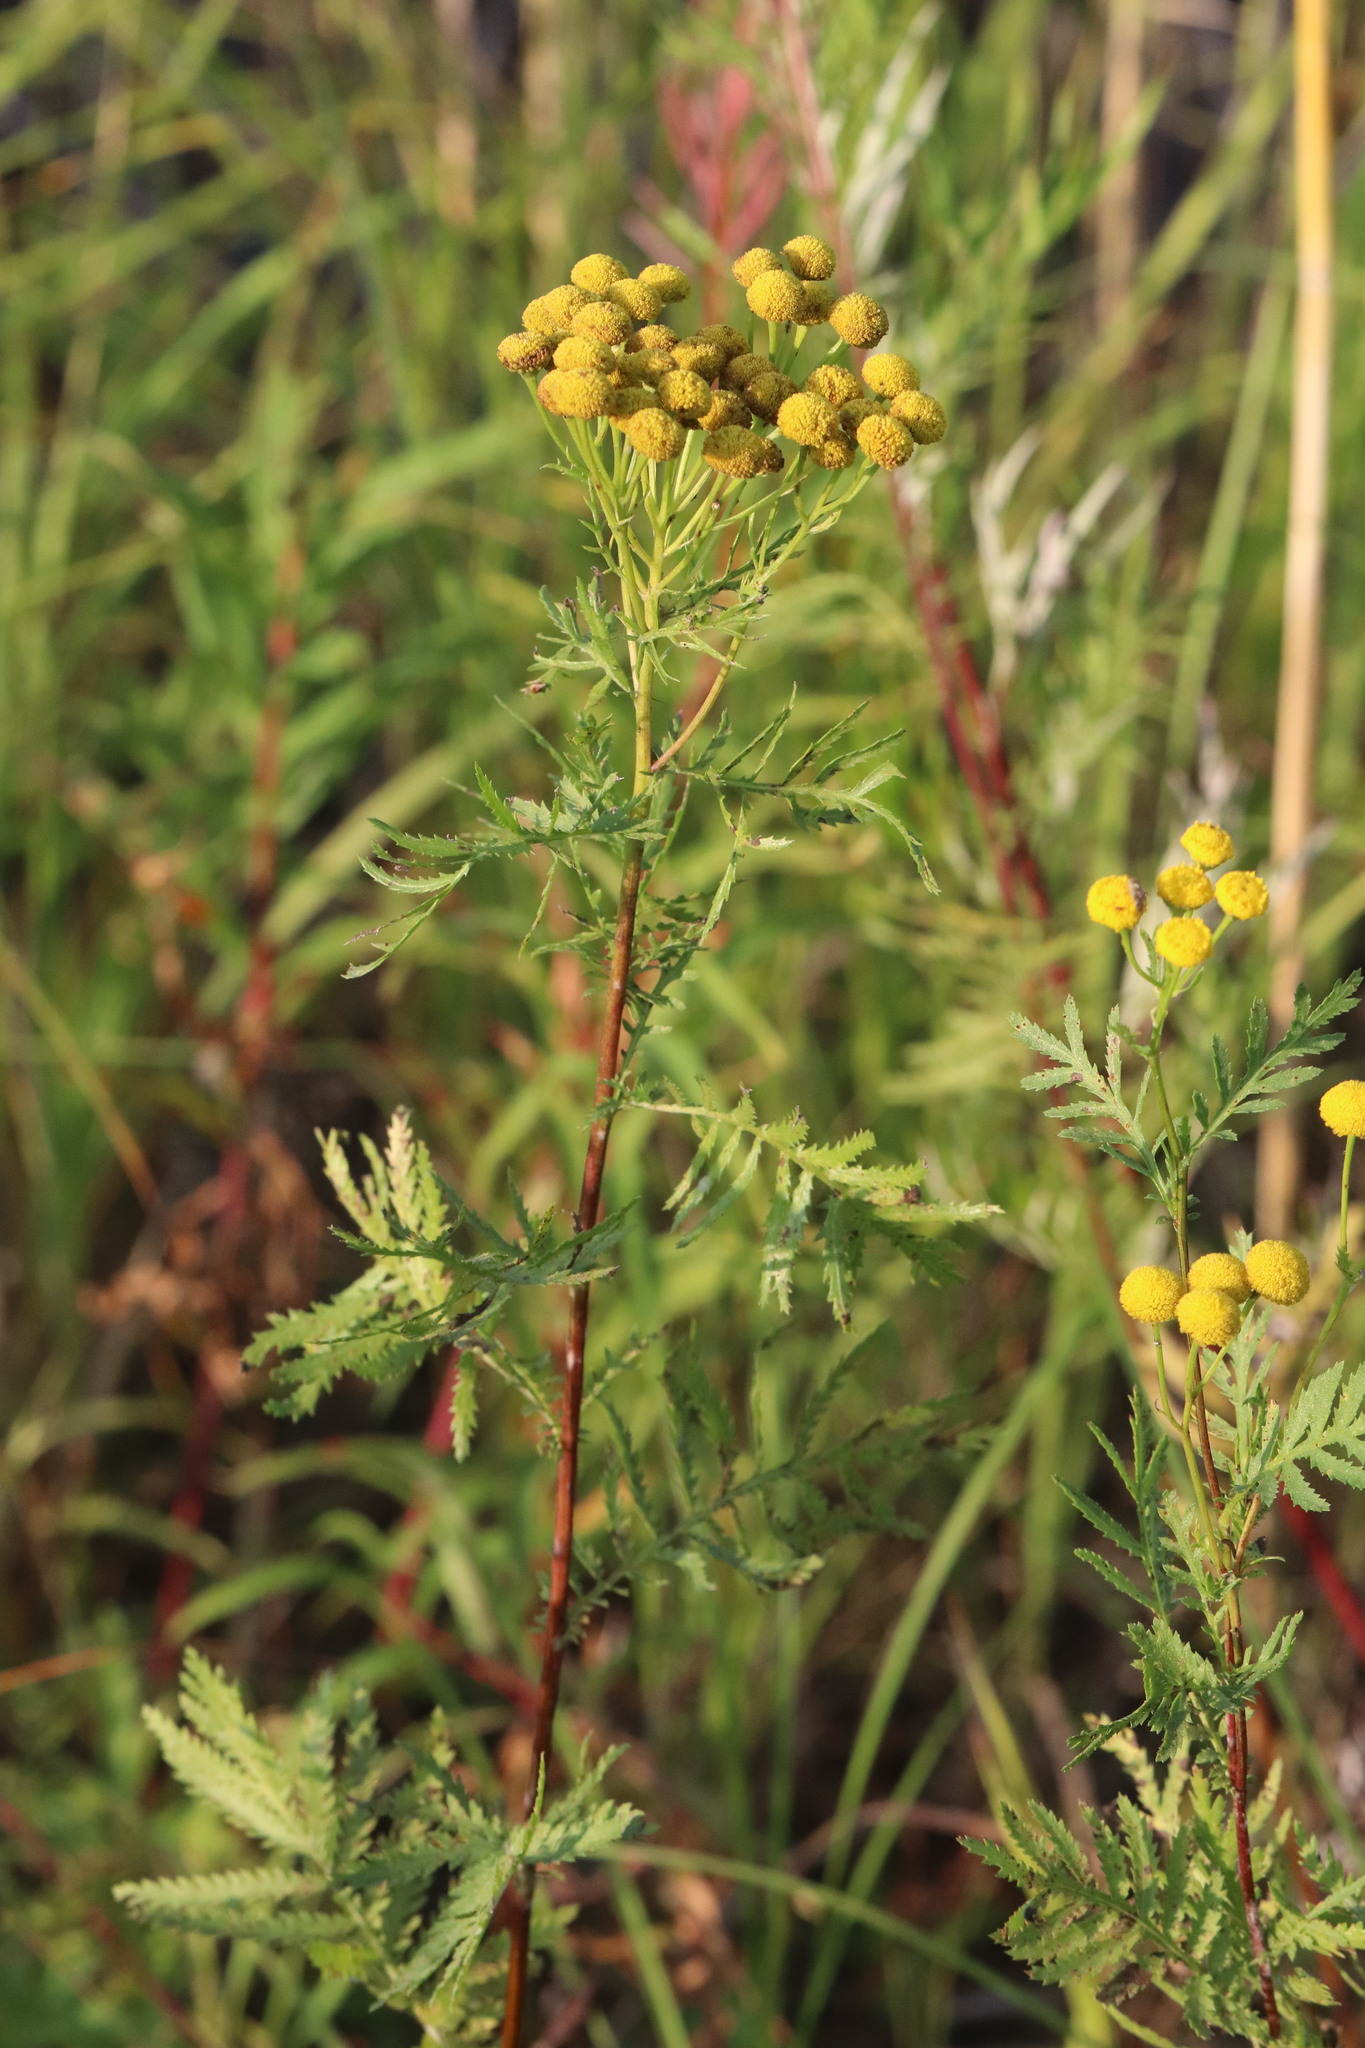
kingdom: Plantae
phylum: Tracheophyta
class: Magnoliopsida
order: Asterales
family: Asteraceae
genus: Tanacetum
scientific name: Tanacetum vulgare
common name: Common tansy
